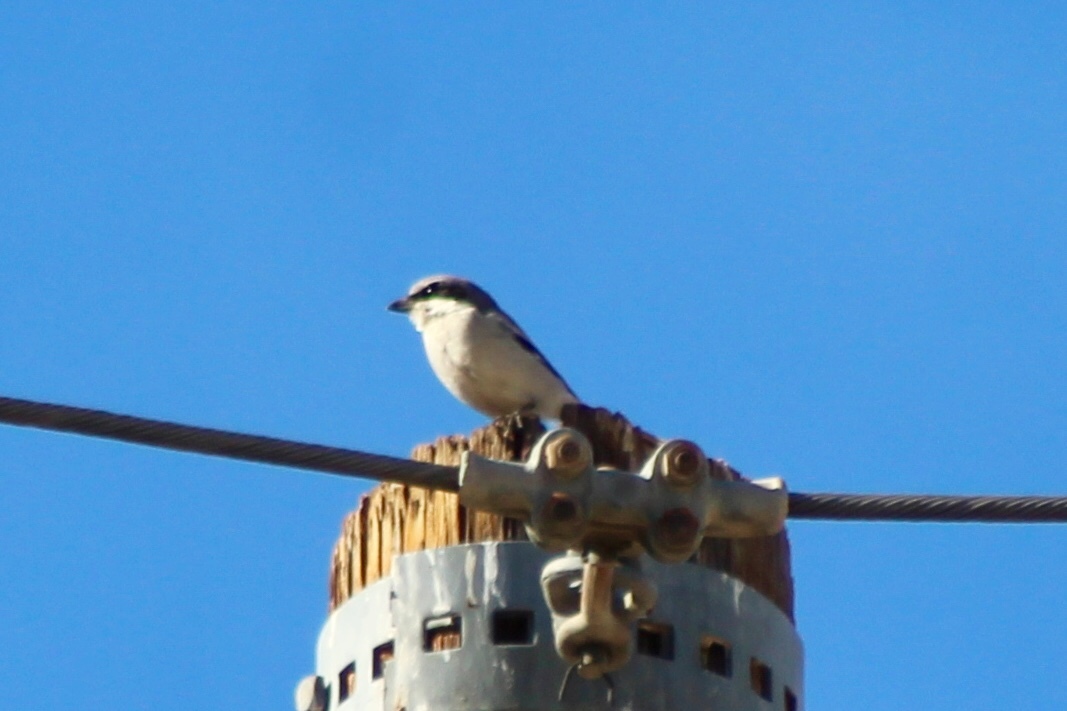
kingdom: Animalia
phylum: Chordata
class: Aves
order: Passeriformes
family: Laniidae
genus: Lanius
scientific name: Lanius ludovicianus
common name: Loggerhead shrike
